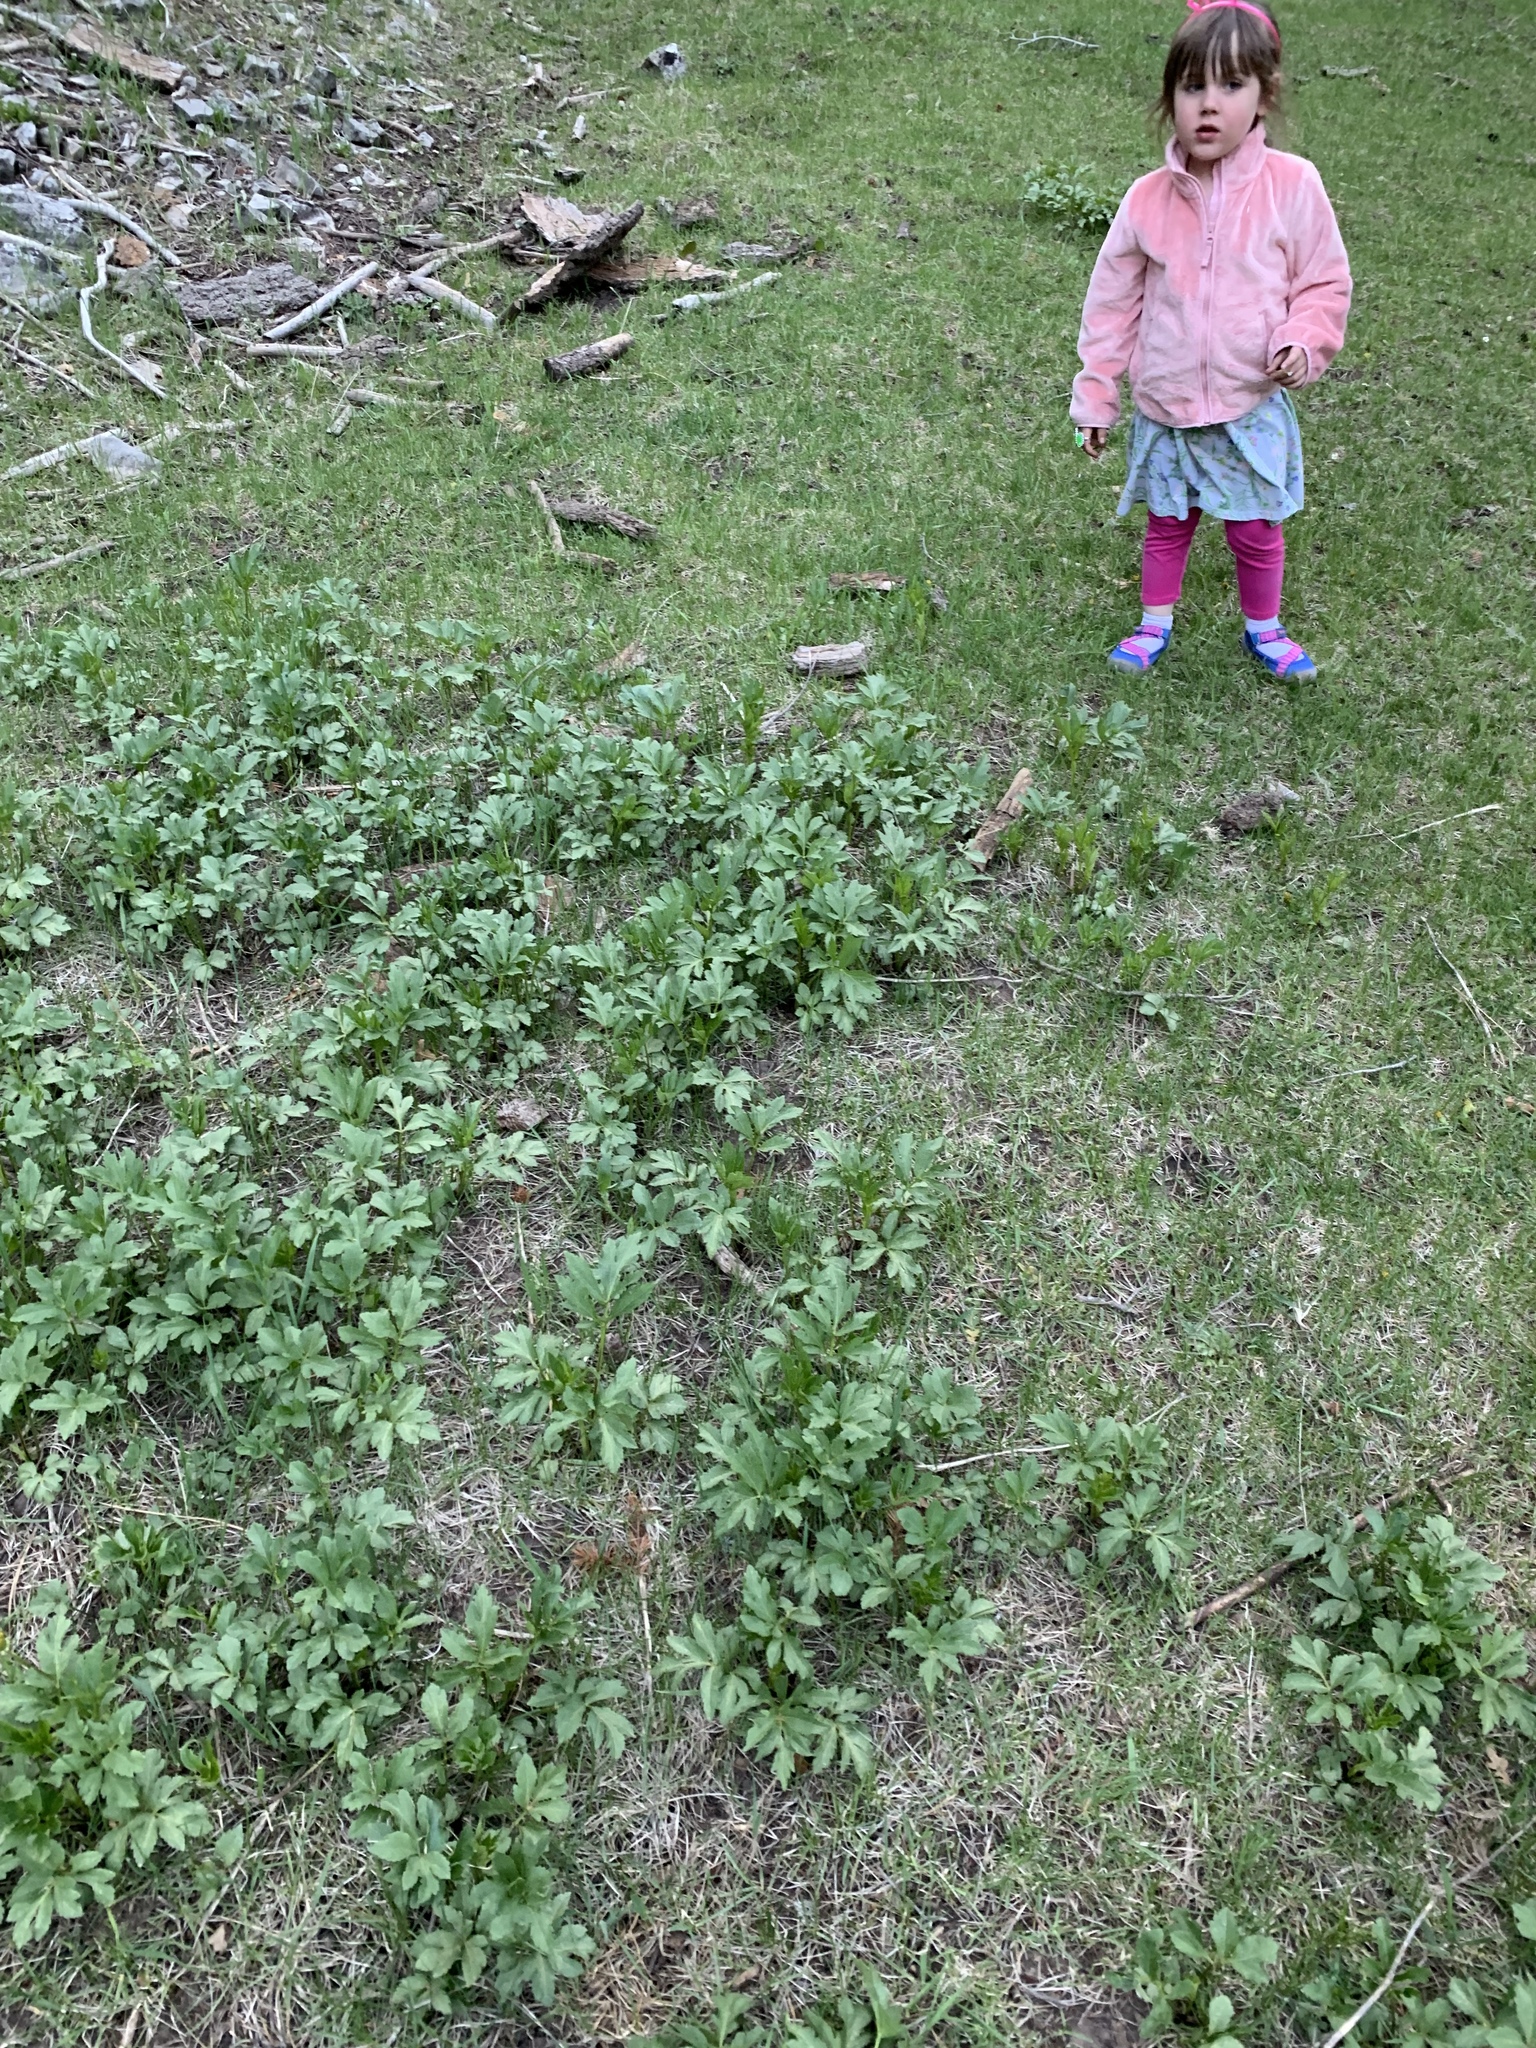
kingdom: Plantae
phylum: Tracheophyta
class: Magnoliopsida
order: Asterales
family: Asteraceae
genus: Rudbeckia
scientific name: Rudbeckia laciniata
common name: Coneflower
